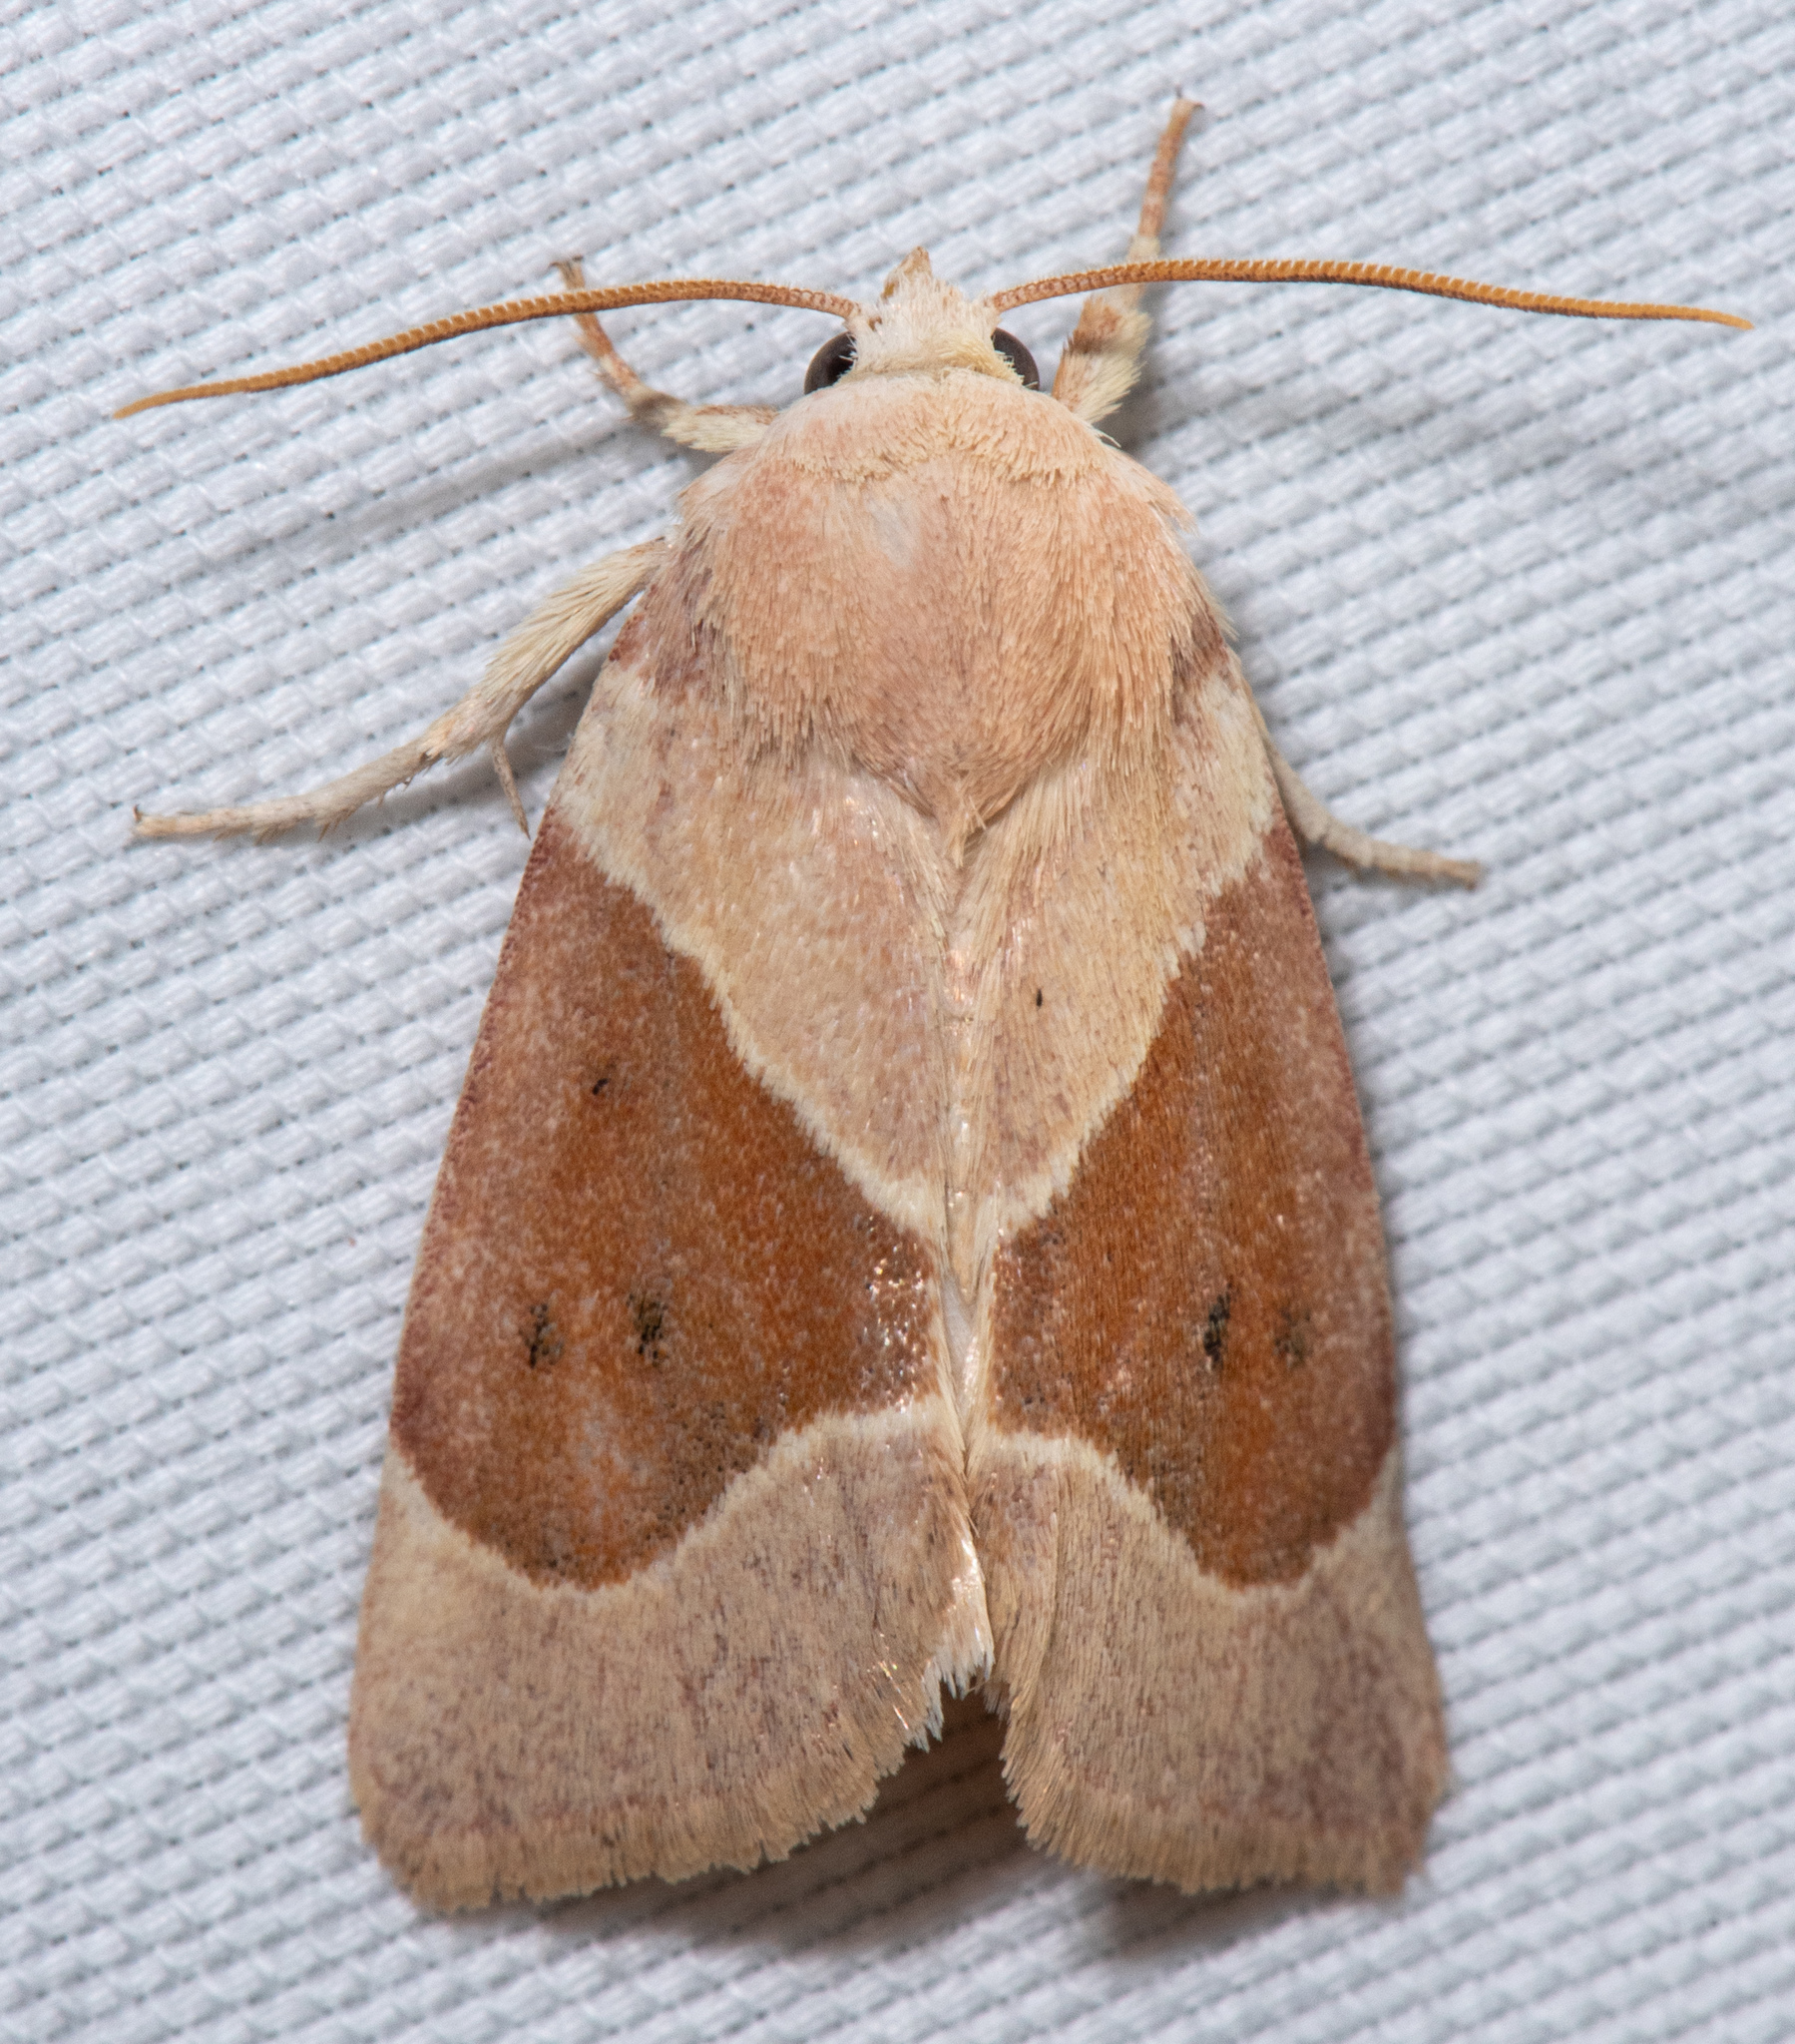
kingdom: Animalia
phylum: Arthropoda
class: Insecta
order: Lepidoptera
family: Noctuidae
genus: Cosmia
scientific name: Cosmia calami
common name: American dun-bar moth
